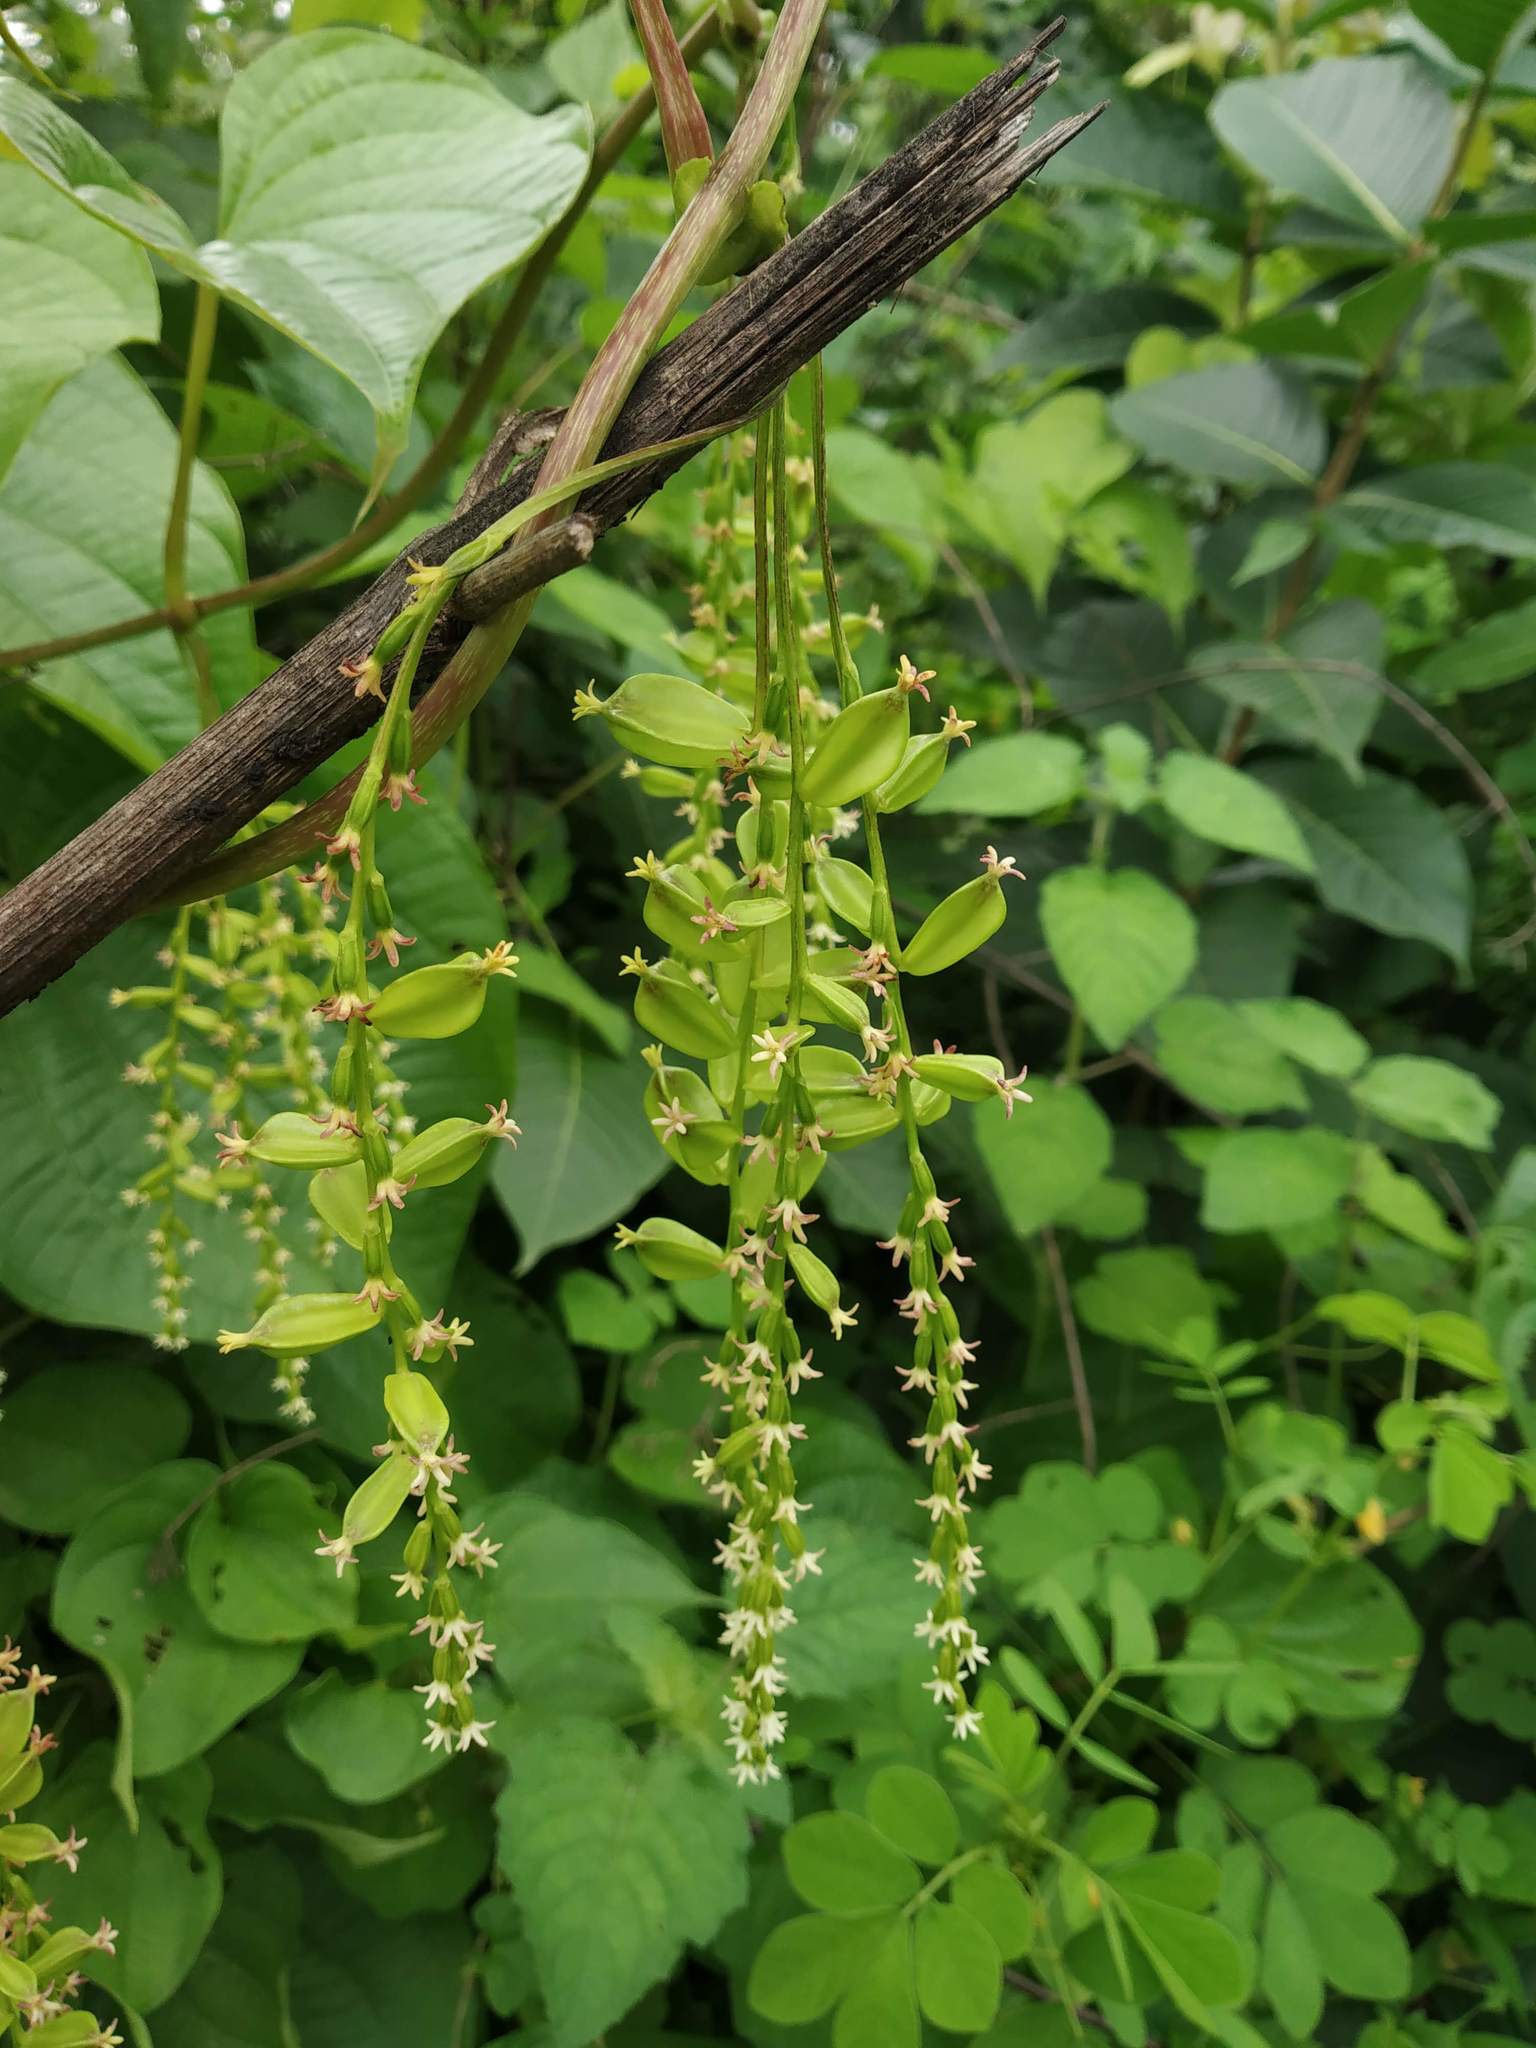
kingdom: Plantae
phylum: Tracheophyta
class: Liliopsida
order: Dioscoreales
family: Dioscoreaceae
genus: Dioscorea
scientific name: Dioscorea bulbifera
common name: Air yam
